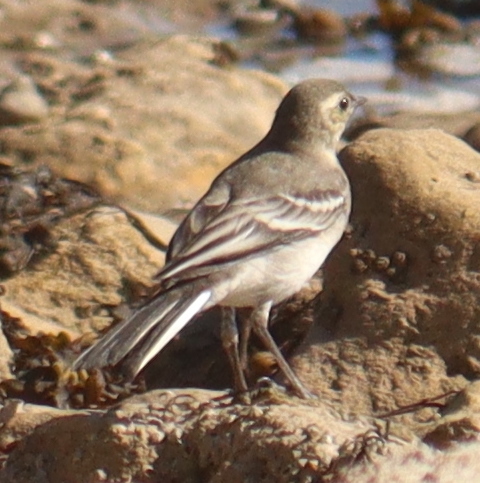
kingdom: Animalia
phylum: Chordata
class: Aves
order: Passeriformes
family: Motacillidae
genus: Motacilla
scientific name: Motacilla alba
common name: White wagtail
